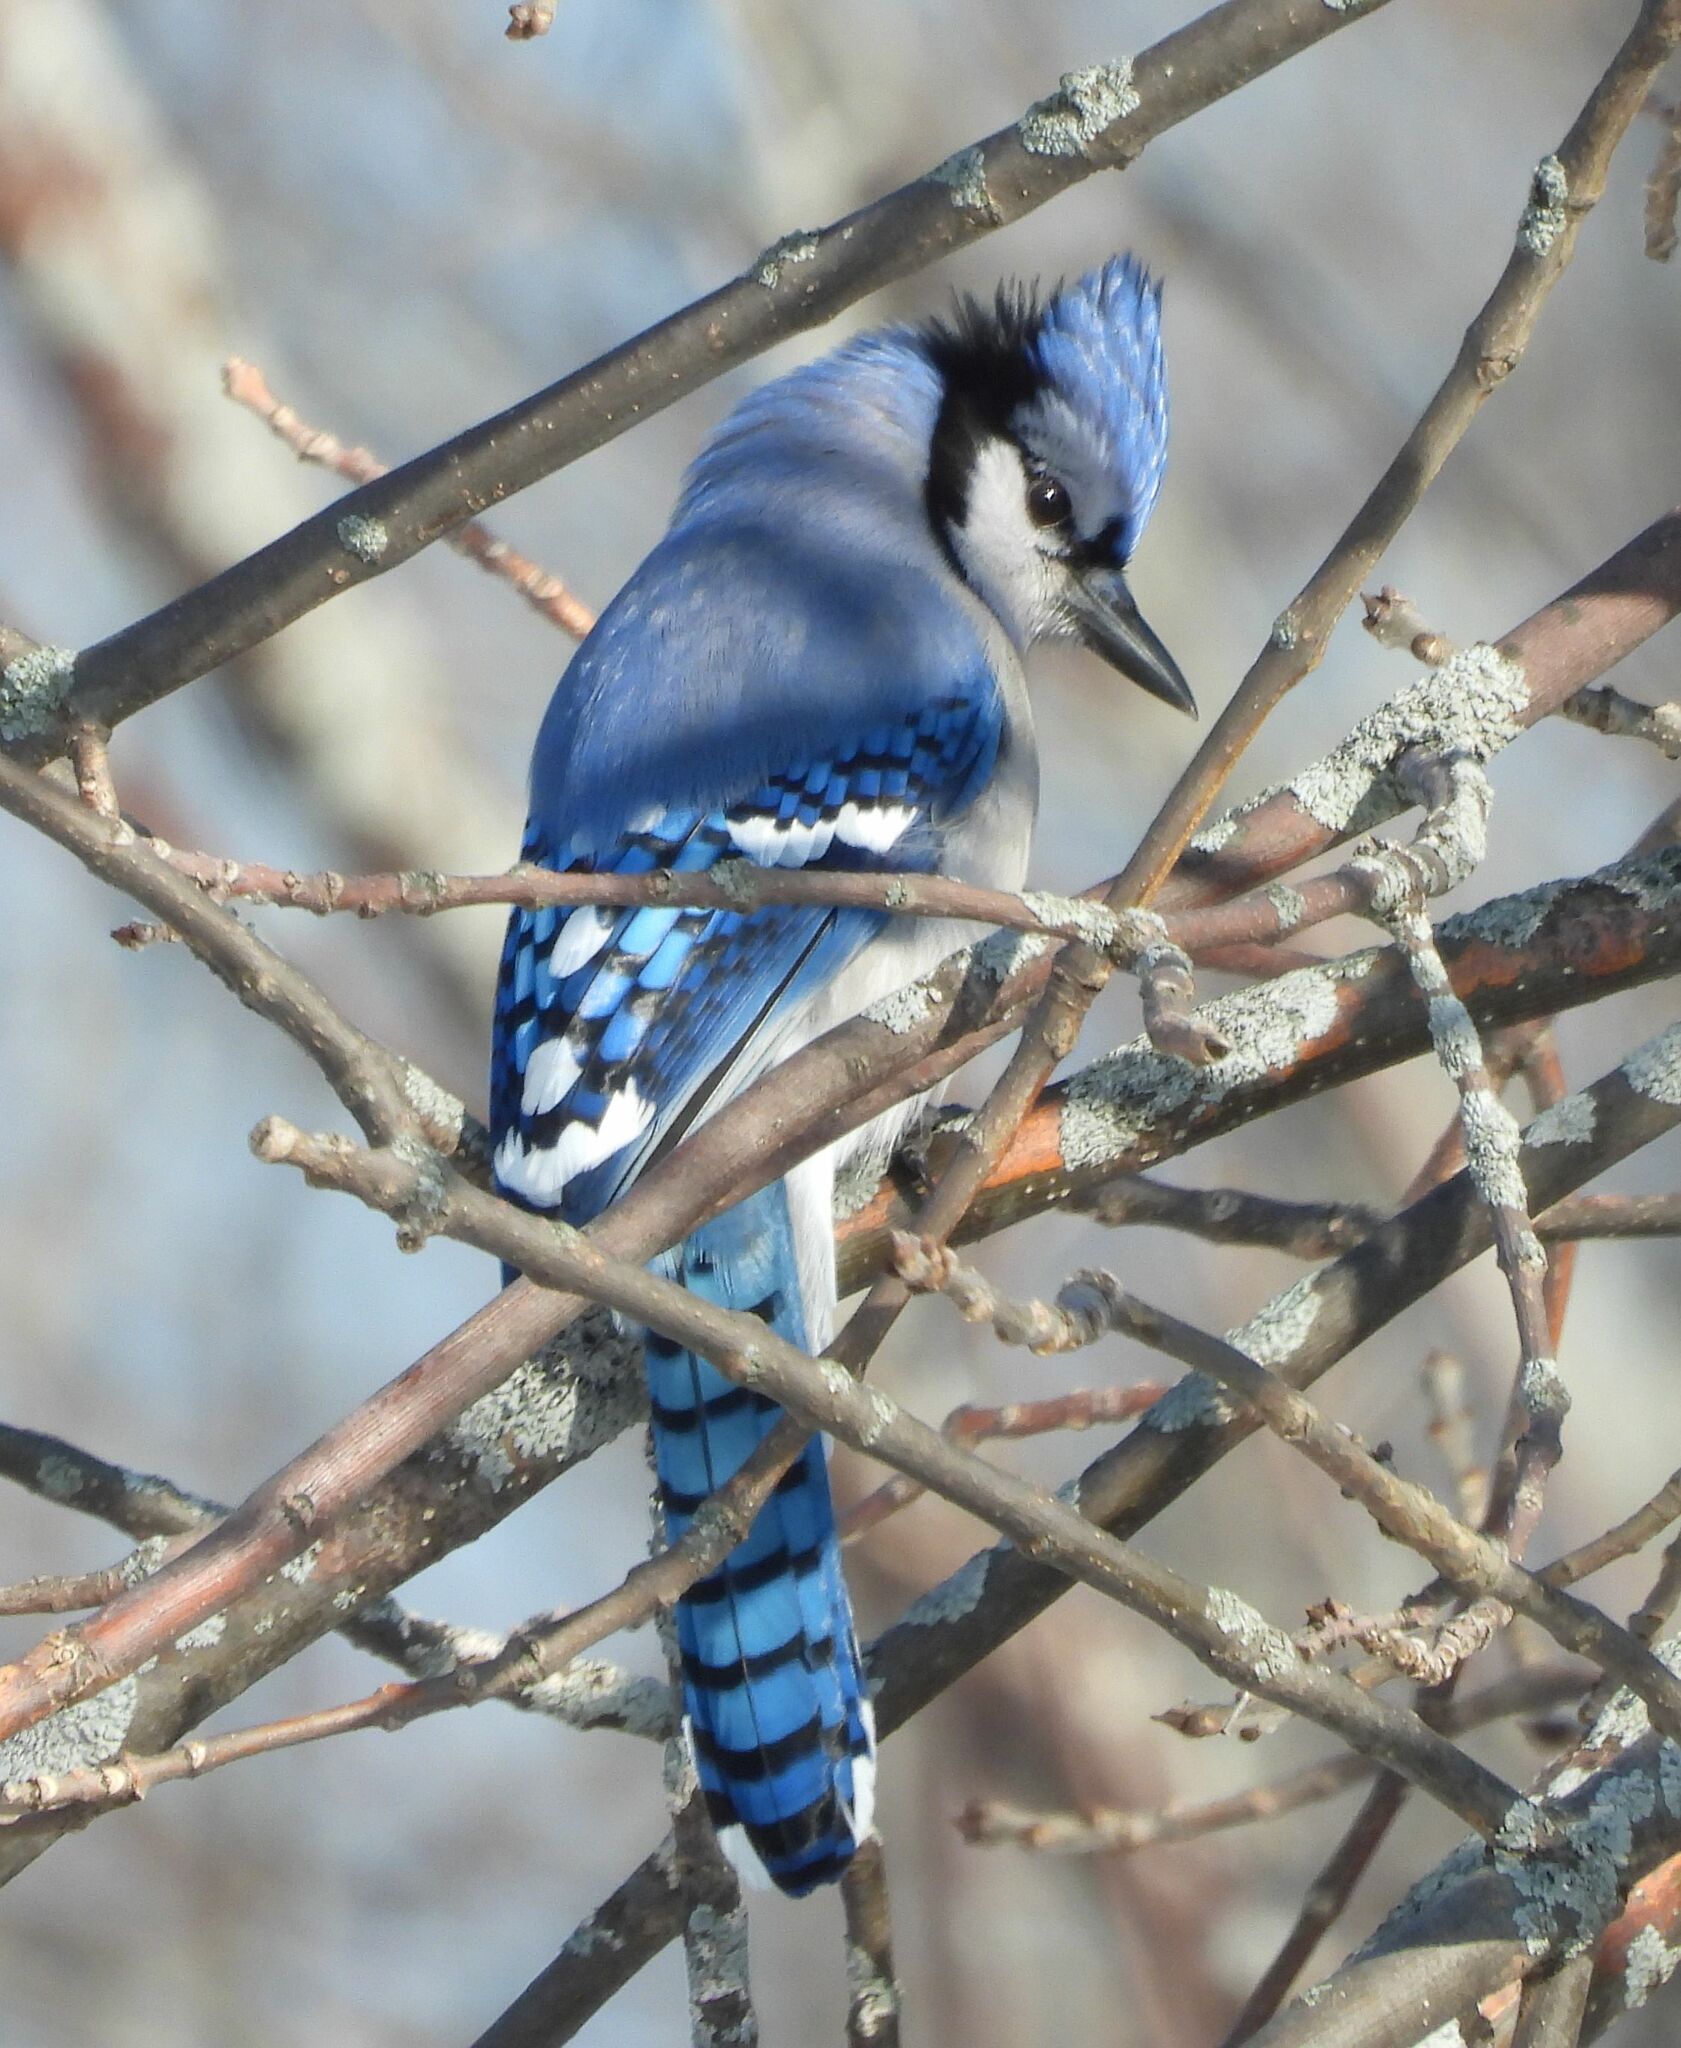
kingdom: Animalia
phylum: Chordata
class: Aves
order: Passeriformes
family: Corvidae
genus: Cyanocitta
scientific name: Cyanocitta cristata
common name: Blue jay
